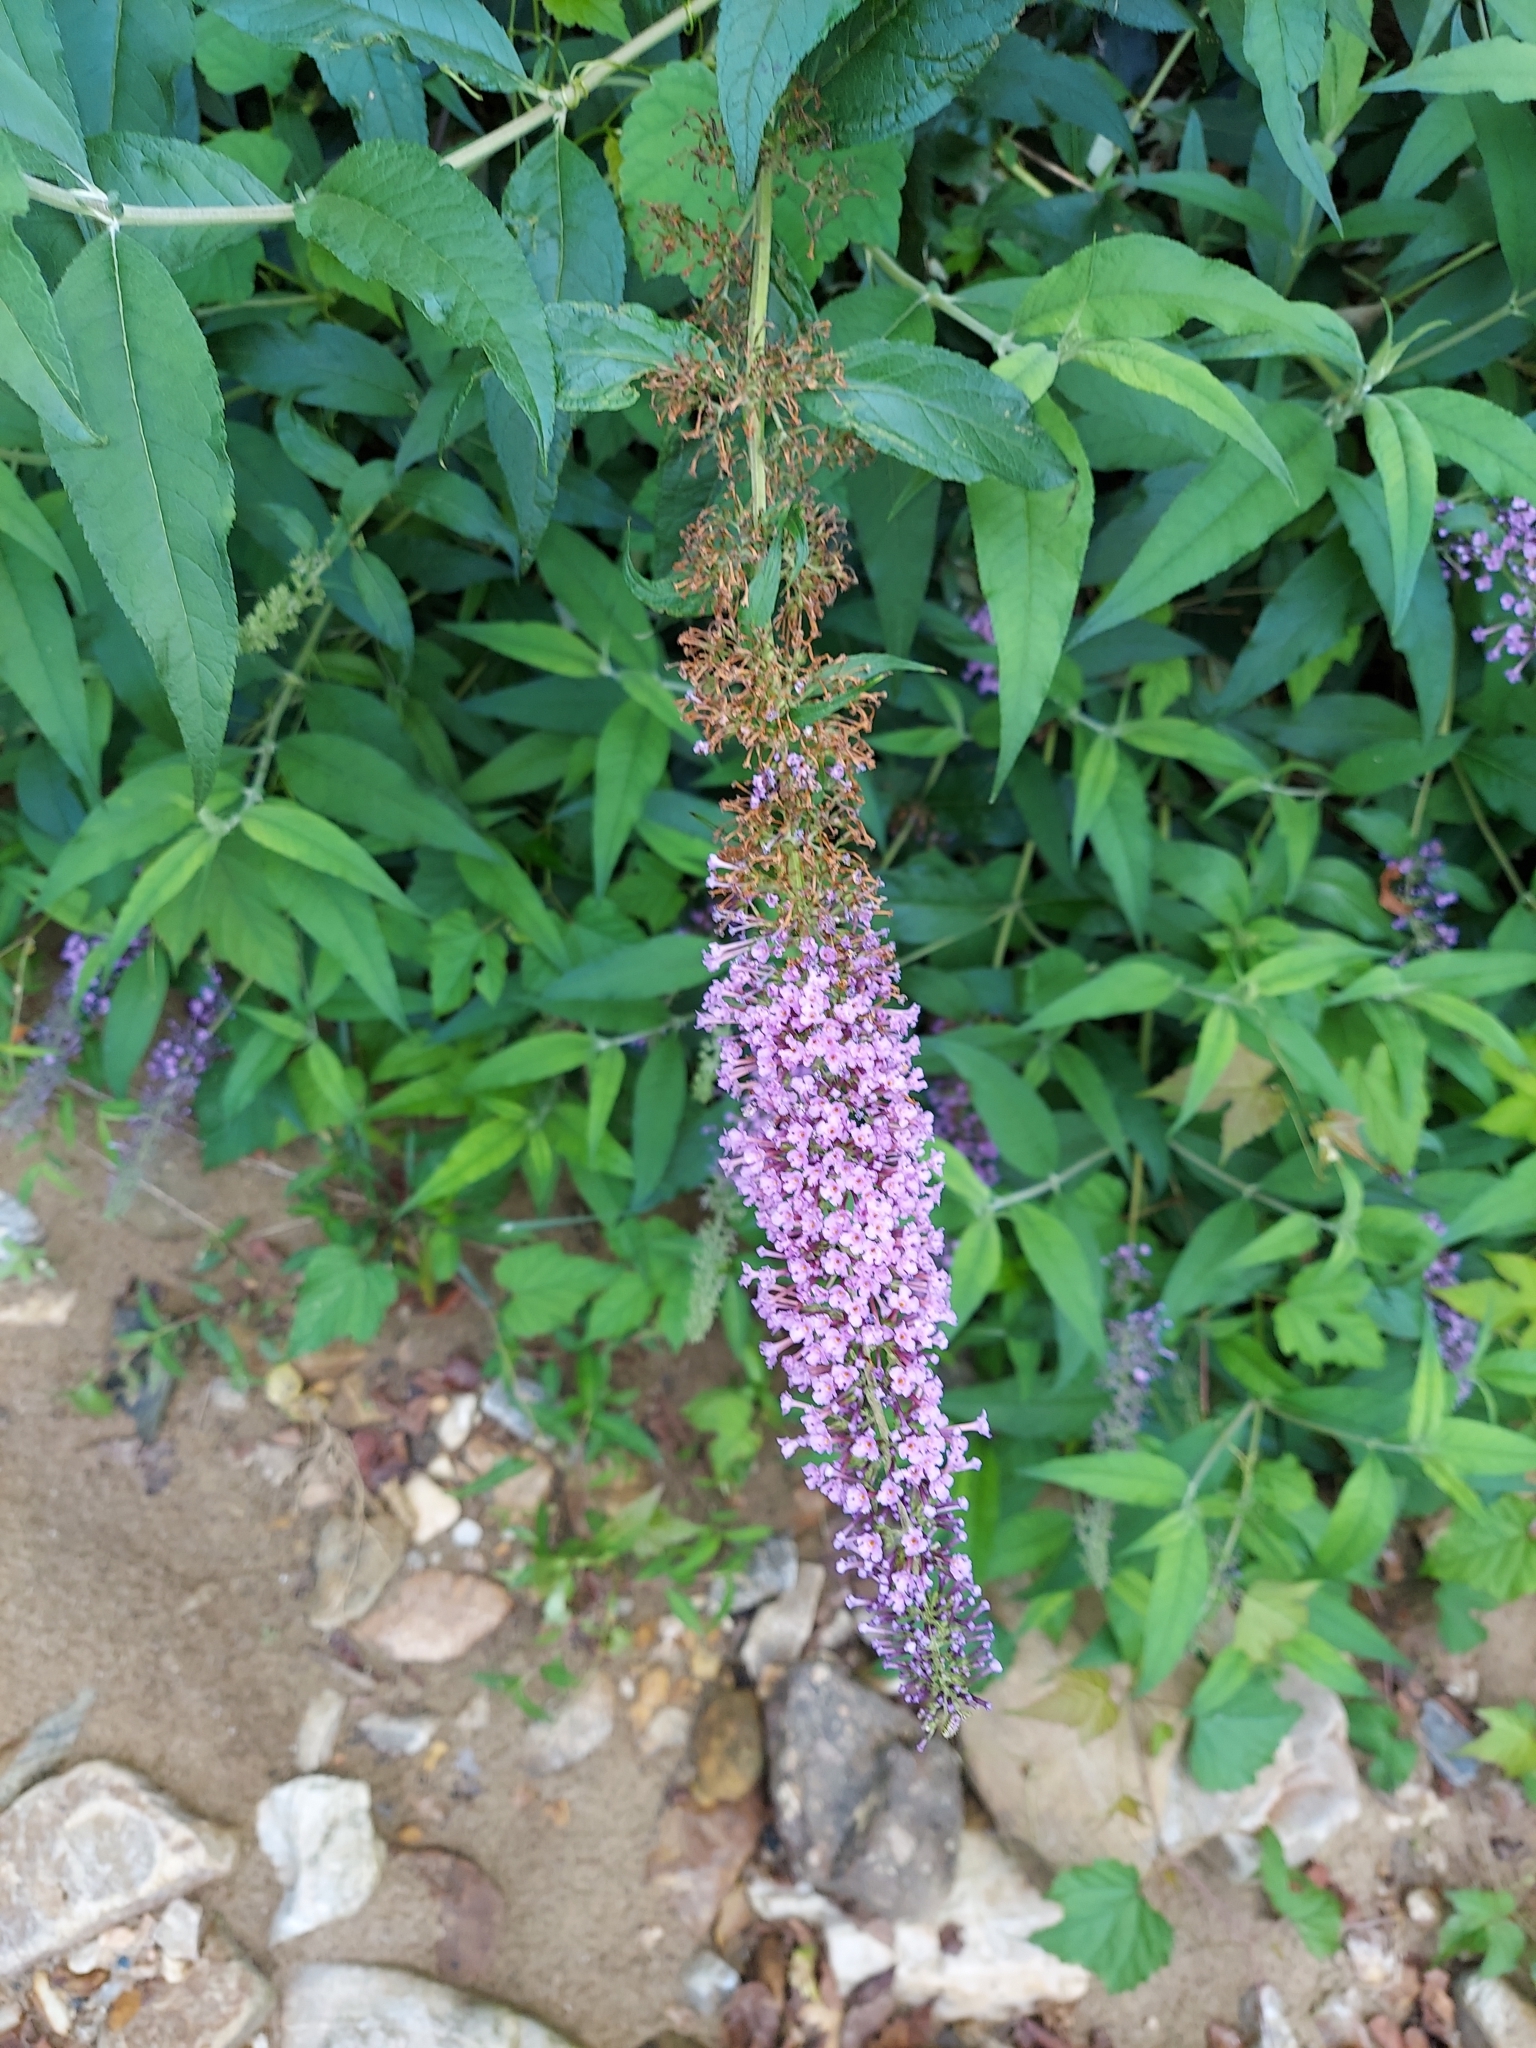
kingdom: Plantae
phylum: Tracheophyta
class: Magnoliopsida
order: Lamiales
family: Scrophulariaceae
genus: Buddleja
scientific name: Buddleja davidii
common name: Butterfly-bush
